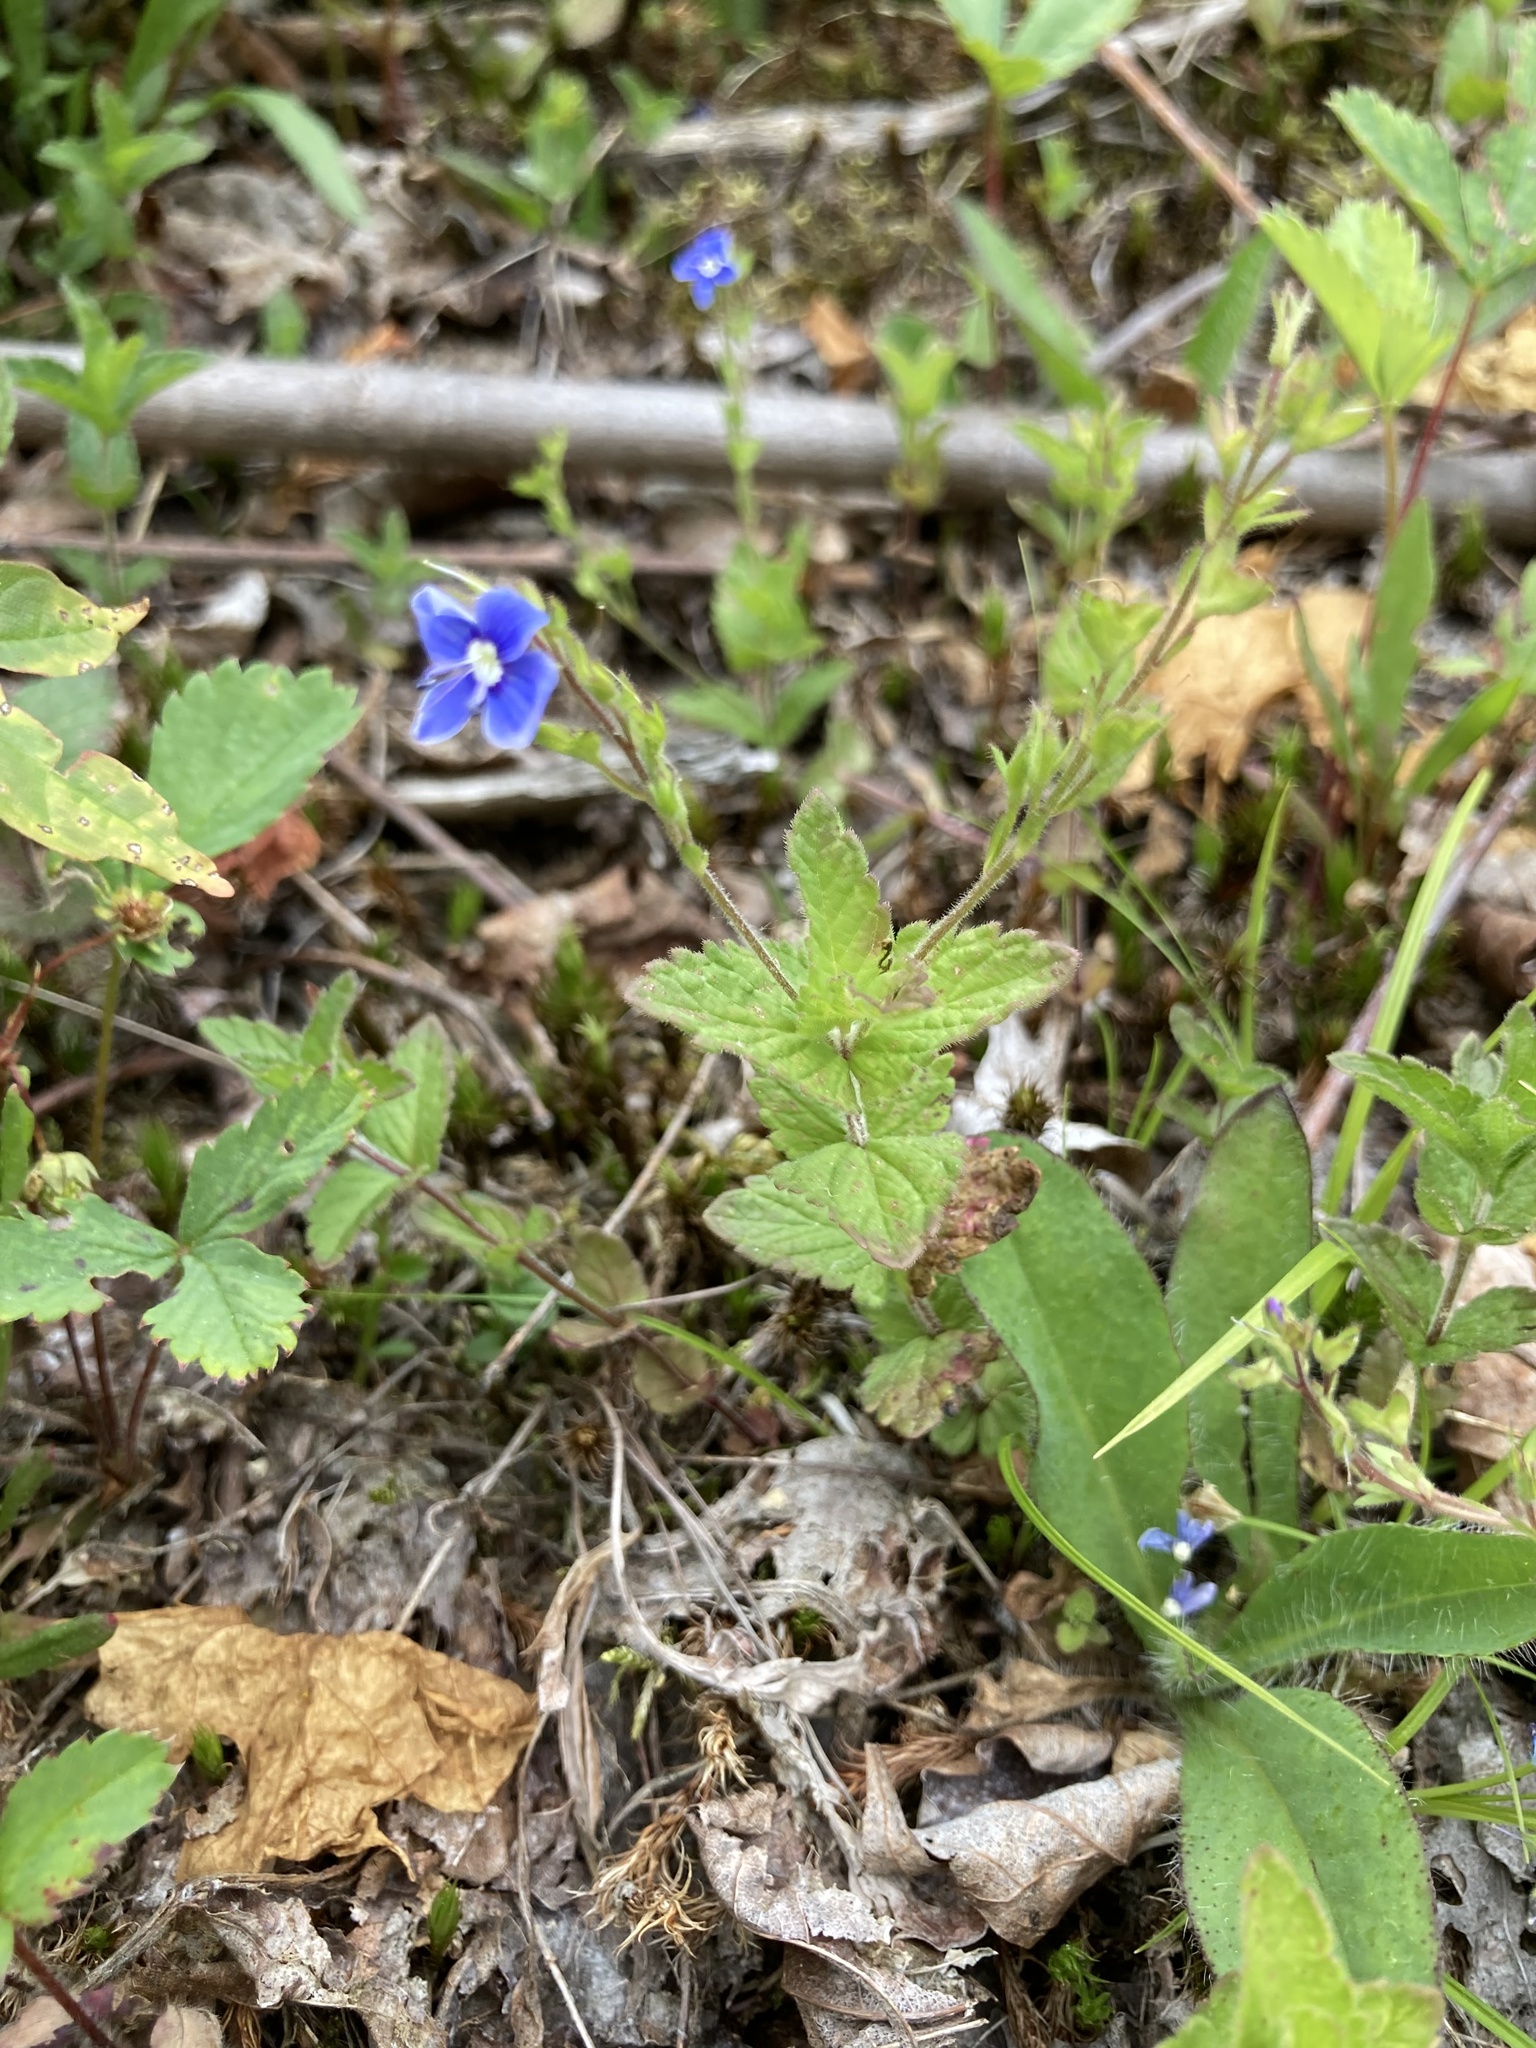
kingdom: Plantae
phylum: Tracheophyta
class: Magnoliopsida
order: Lamiales
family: Plantaginaceae
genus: Veronica
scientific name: Veronica chamaedrys
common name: Germander speedwell
